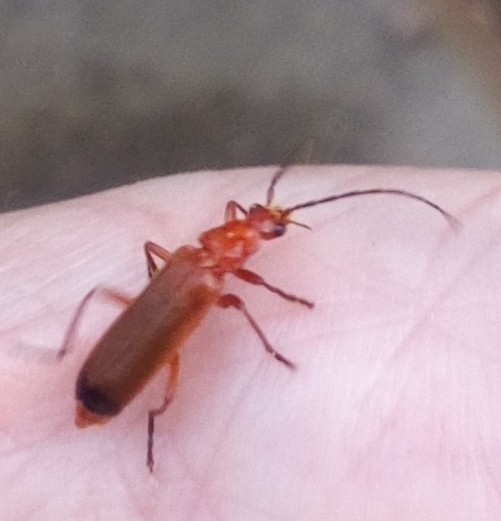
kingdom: Animalia
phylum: Arthropoda
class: Insecta
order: Coleoptera
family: Cantharidae
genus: Rhagonycha
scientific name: Rhagonycha fulva
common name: Common red soldier beetle
